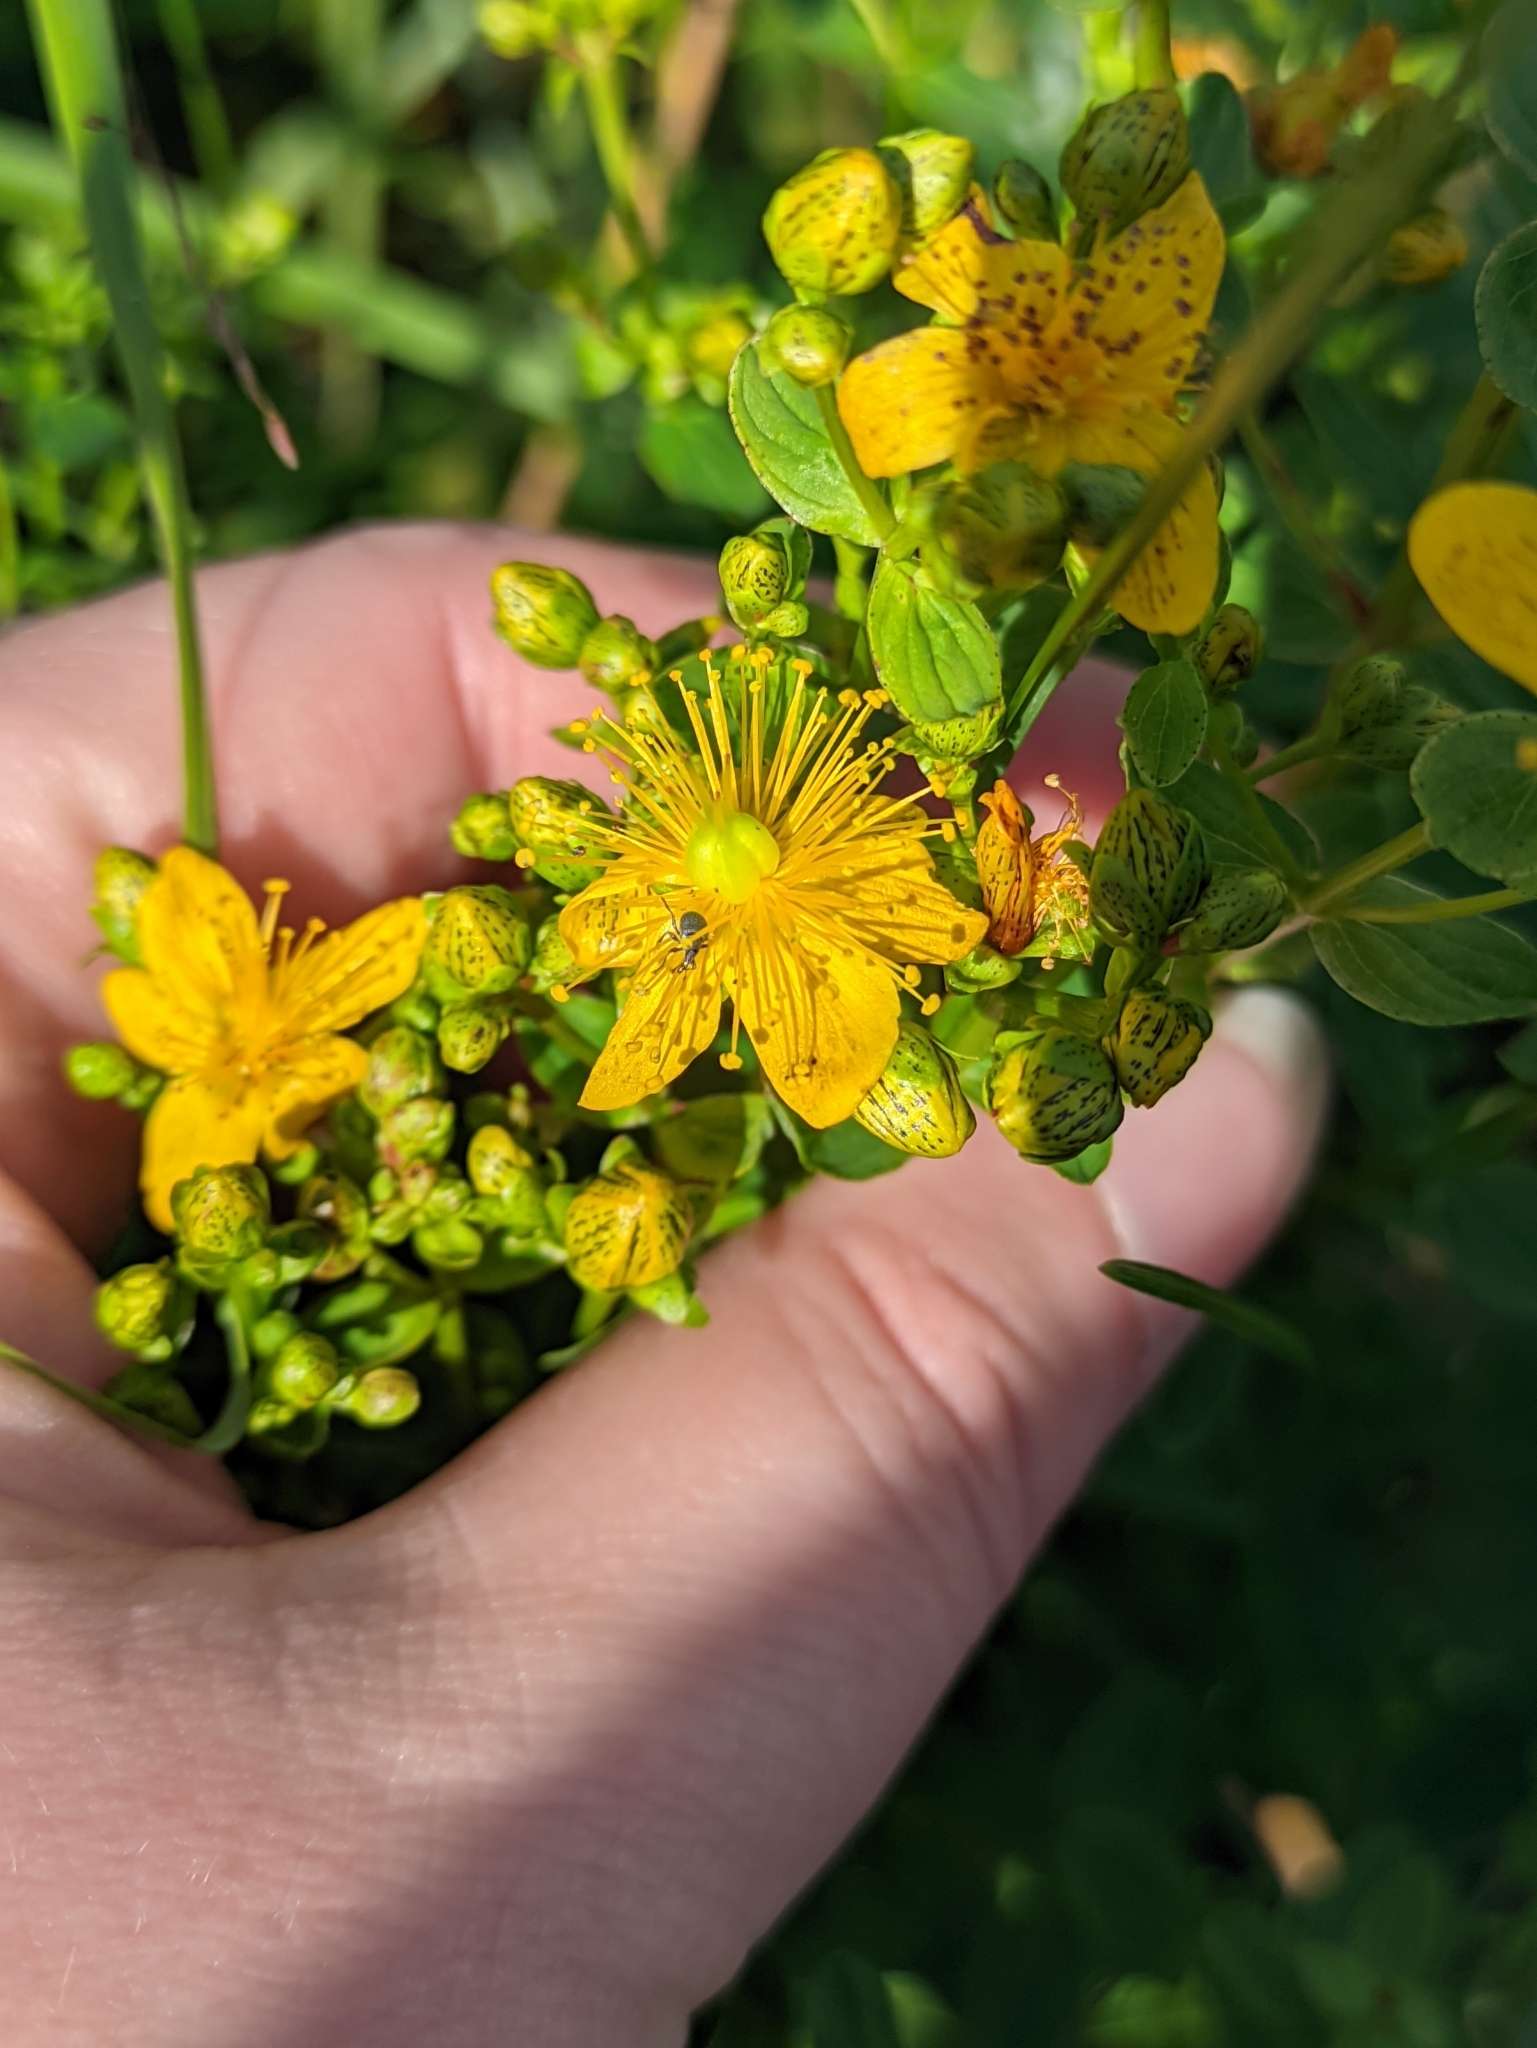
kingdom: Plantae
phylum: Tracheophyta
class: Magnoliopsida
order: Malpighiales
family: Hypericaceae
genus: Hypericum
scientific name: Hypericum maculatum
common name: Imperforate st. john's-wort
